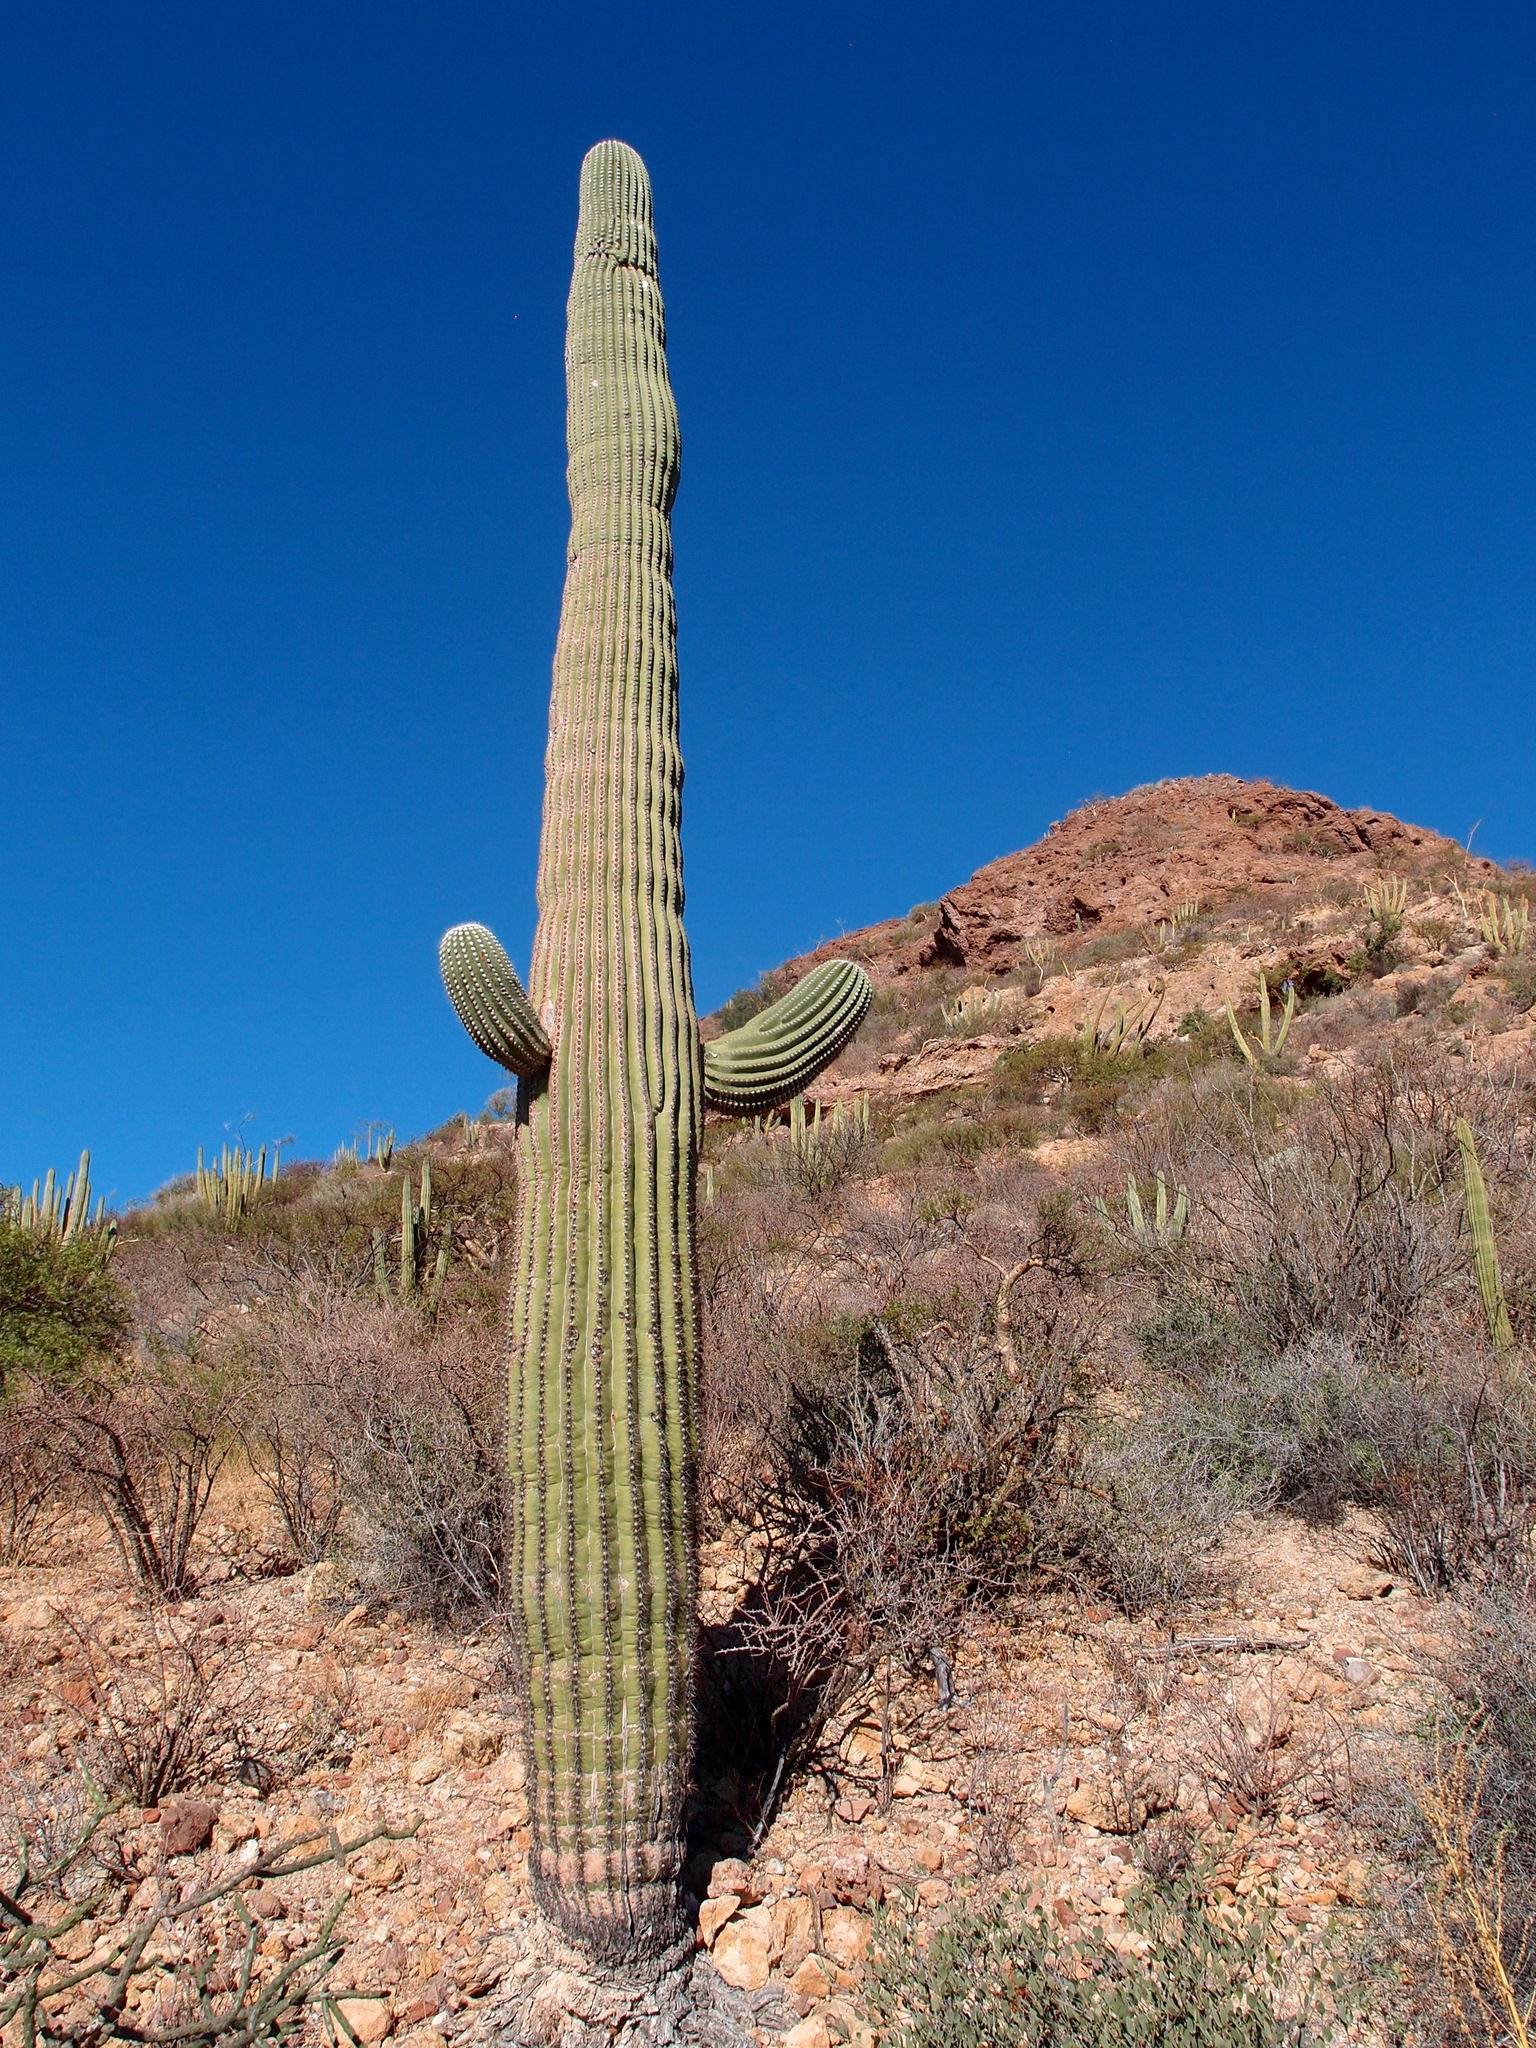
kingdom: Plantae
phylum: Tracheophyta
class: Magnoliopsida
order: Caryophyllales
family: Cactaceae
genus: Carnegiea
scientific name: Carnegiea gigantea
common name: Saguaro
